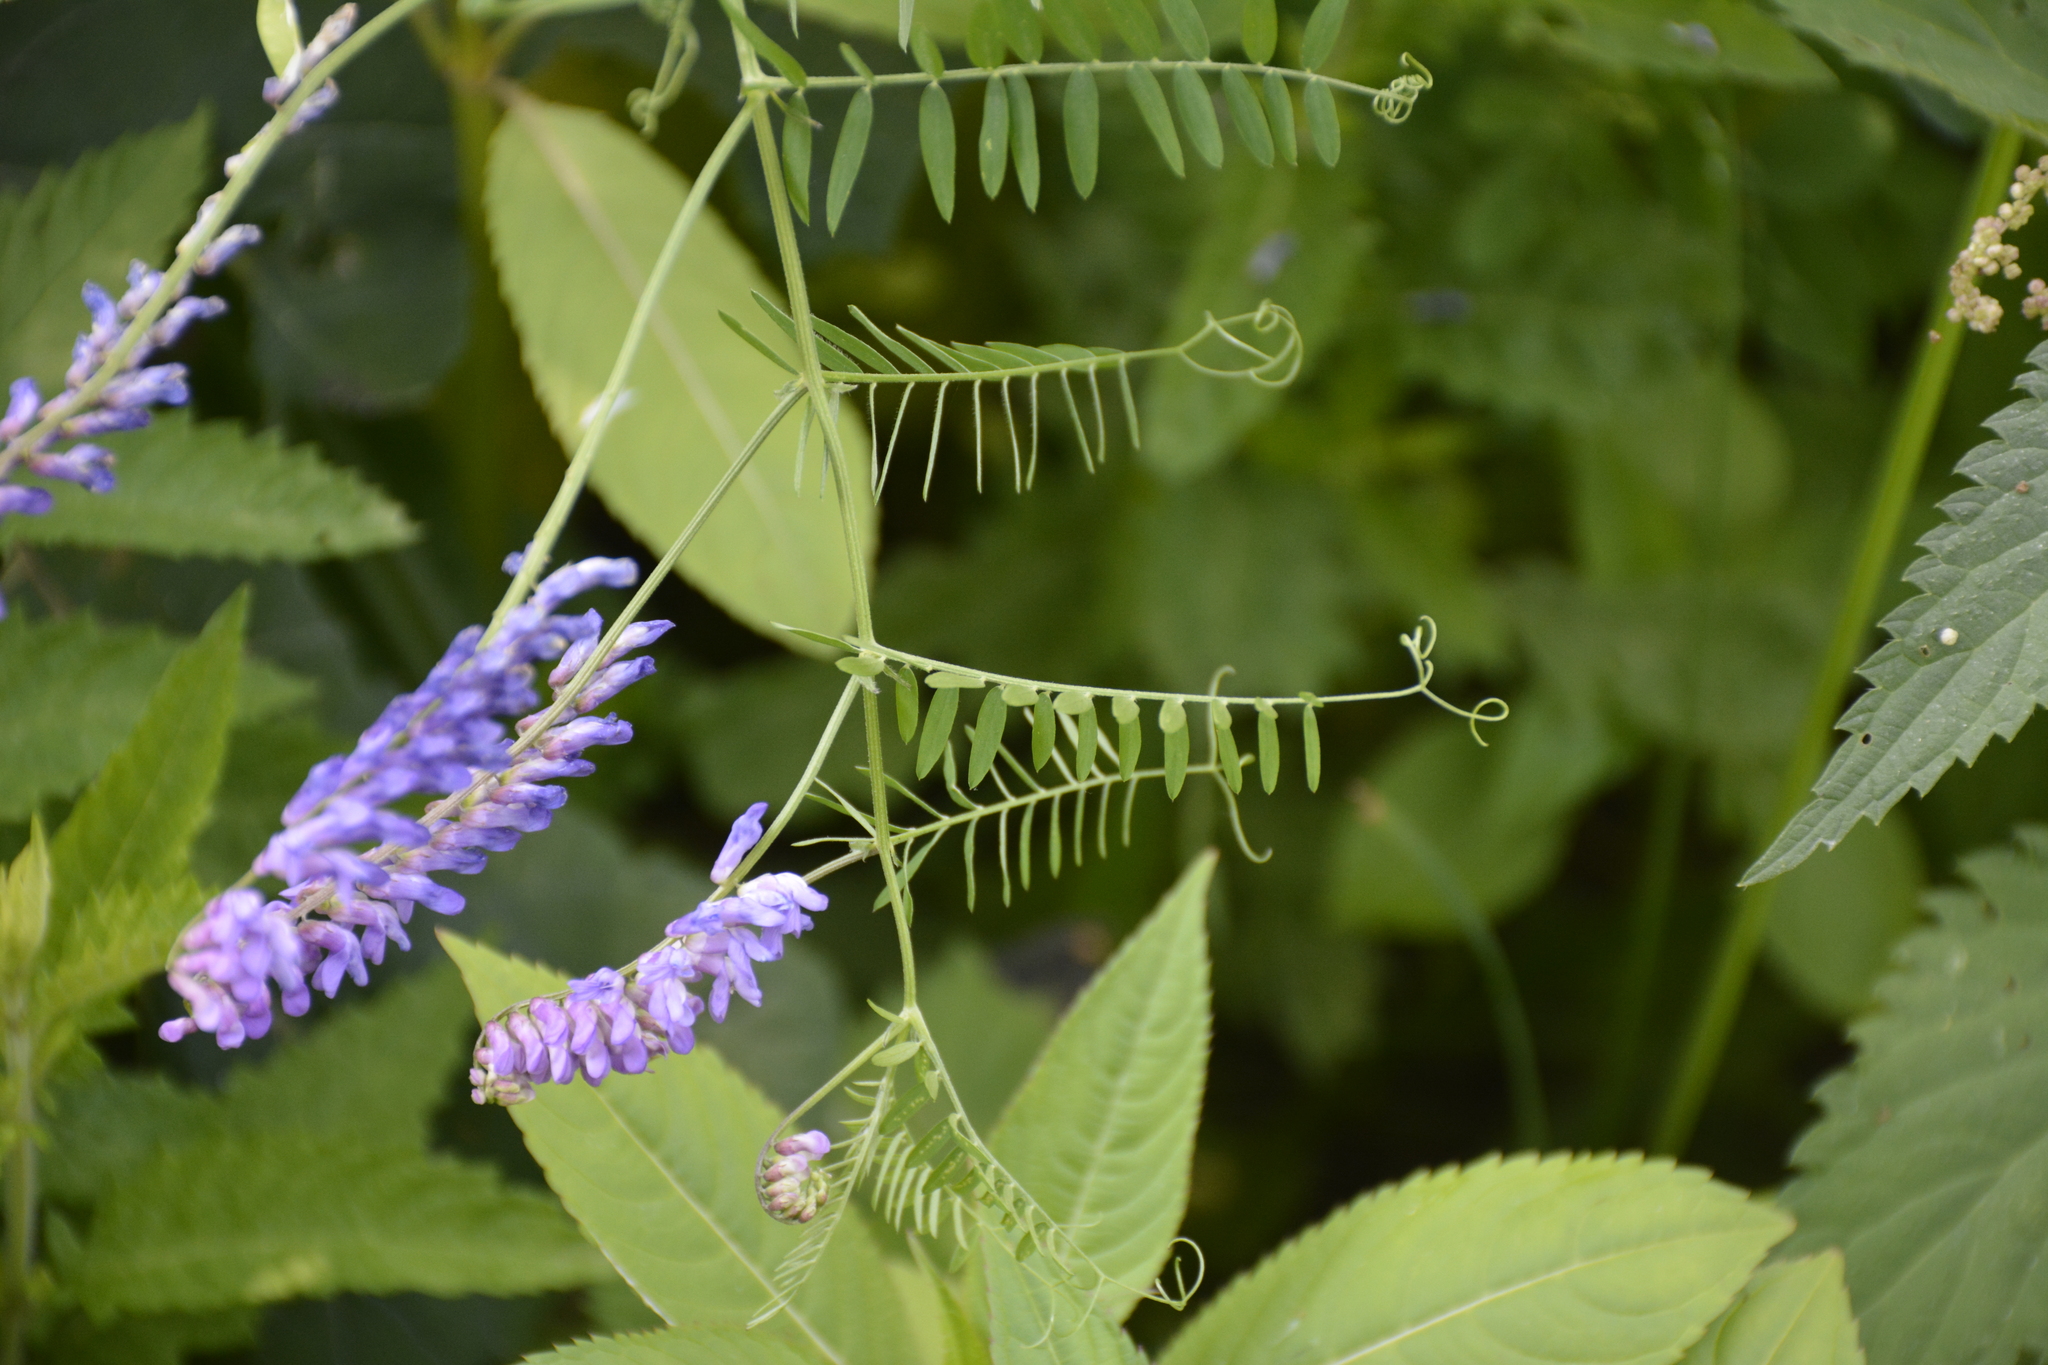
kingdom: Plantae
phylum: Tracheophyta
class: Magnoliopsida
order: Fabales
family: Fabaceae
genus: Vicia
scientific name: Vicia cracca
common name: Bird vetch
